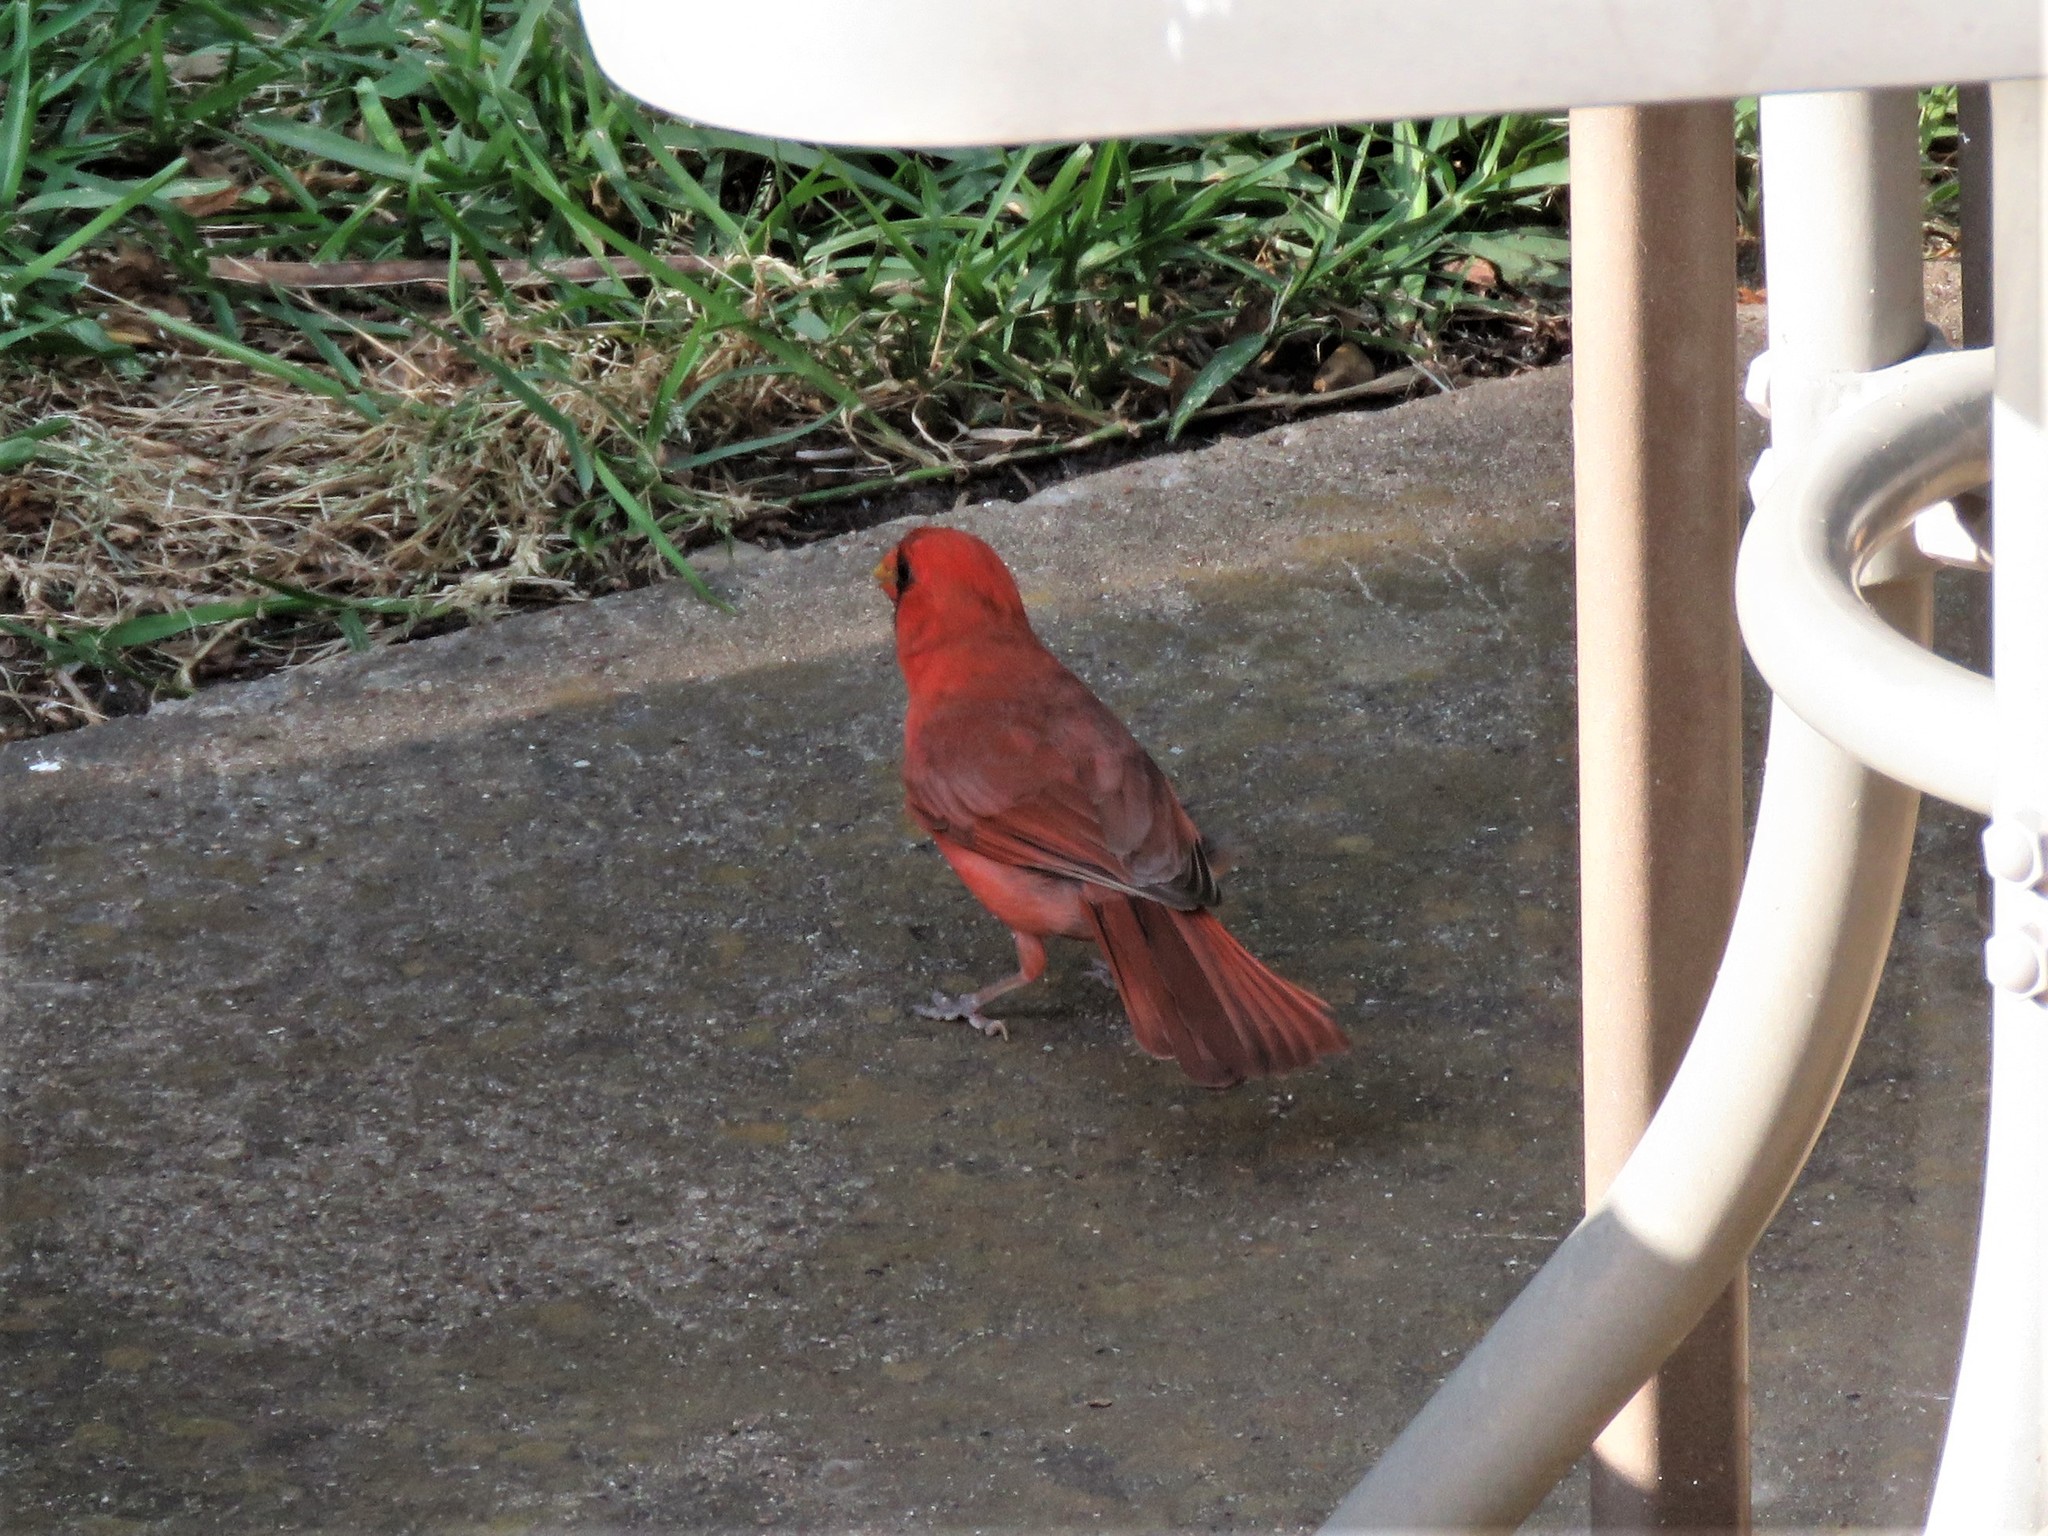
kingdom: Animalia
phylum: Chordata
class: Aves
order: Passeriformes
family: Cardinalidae
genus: Cardinalis
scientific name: Cardinalis cardinalis
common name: Northern cardinal
